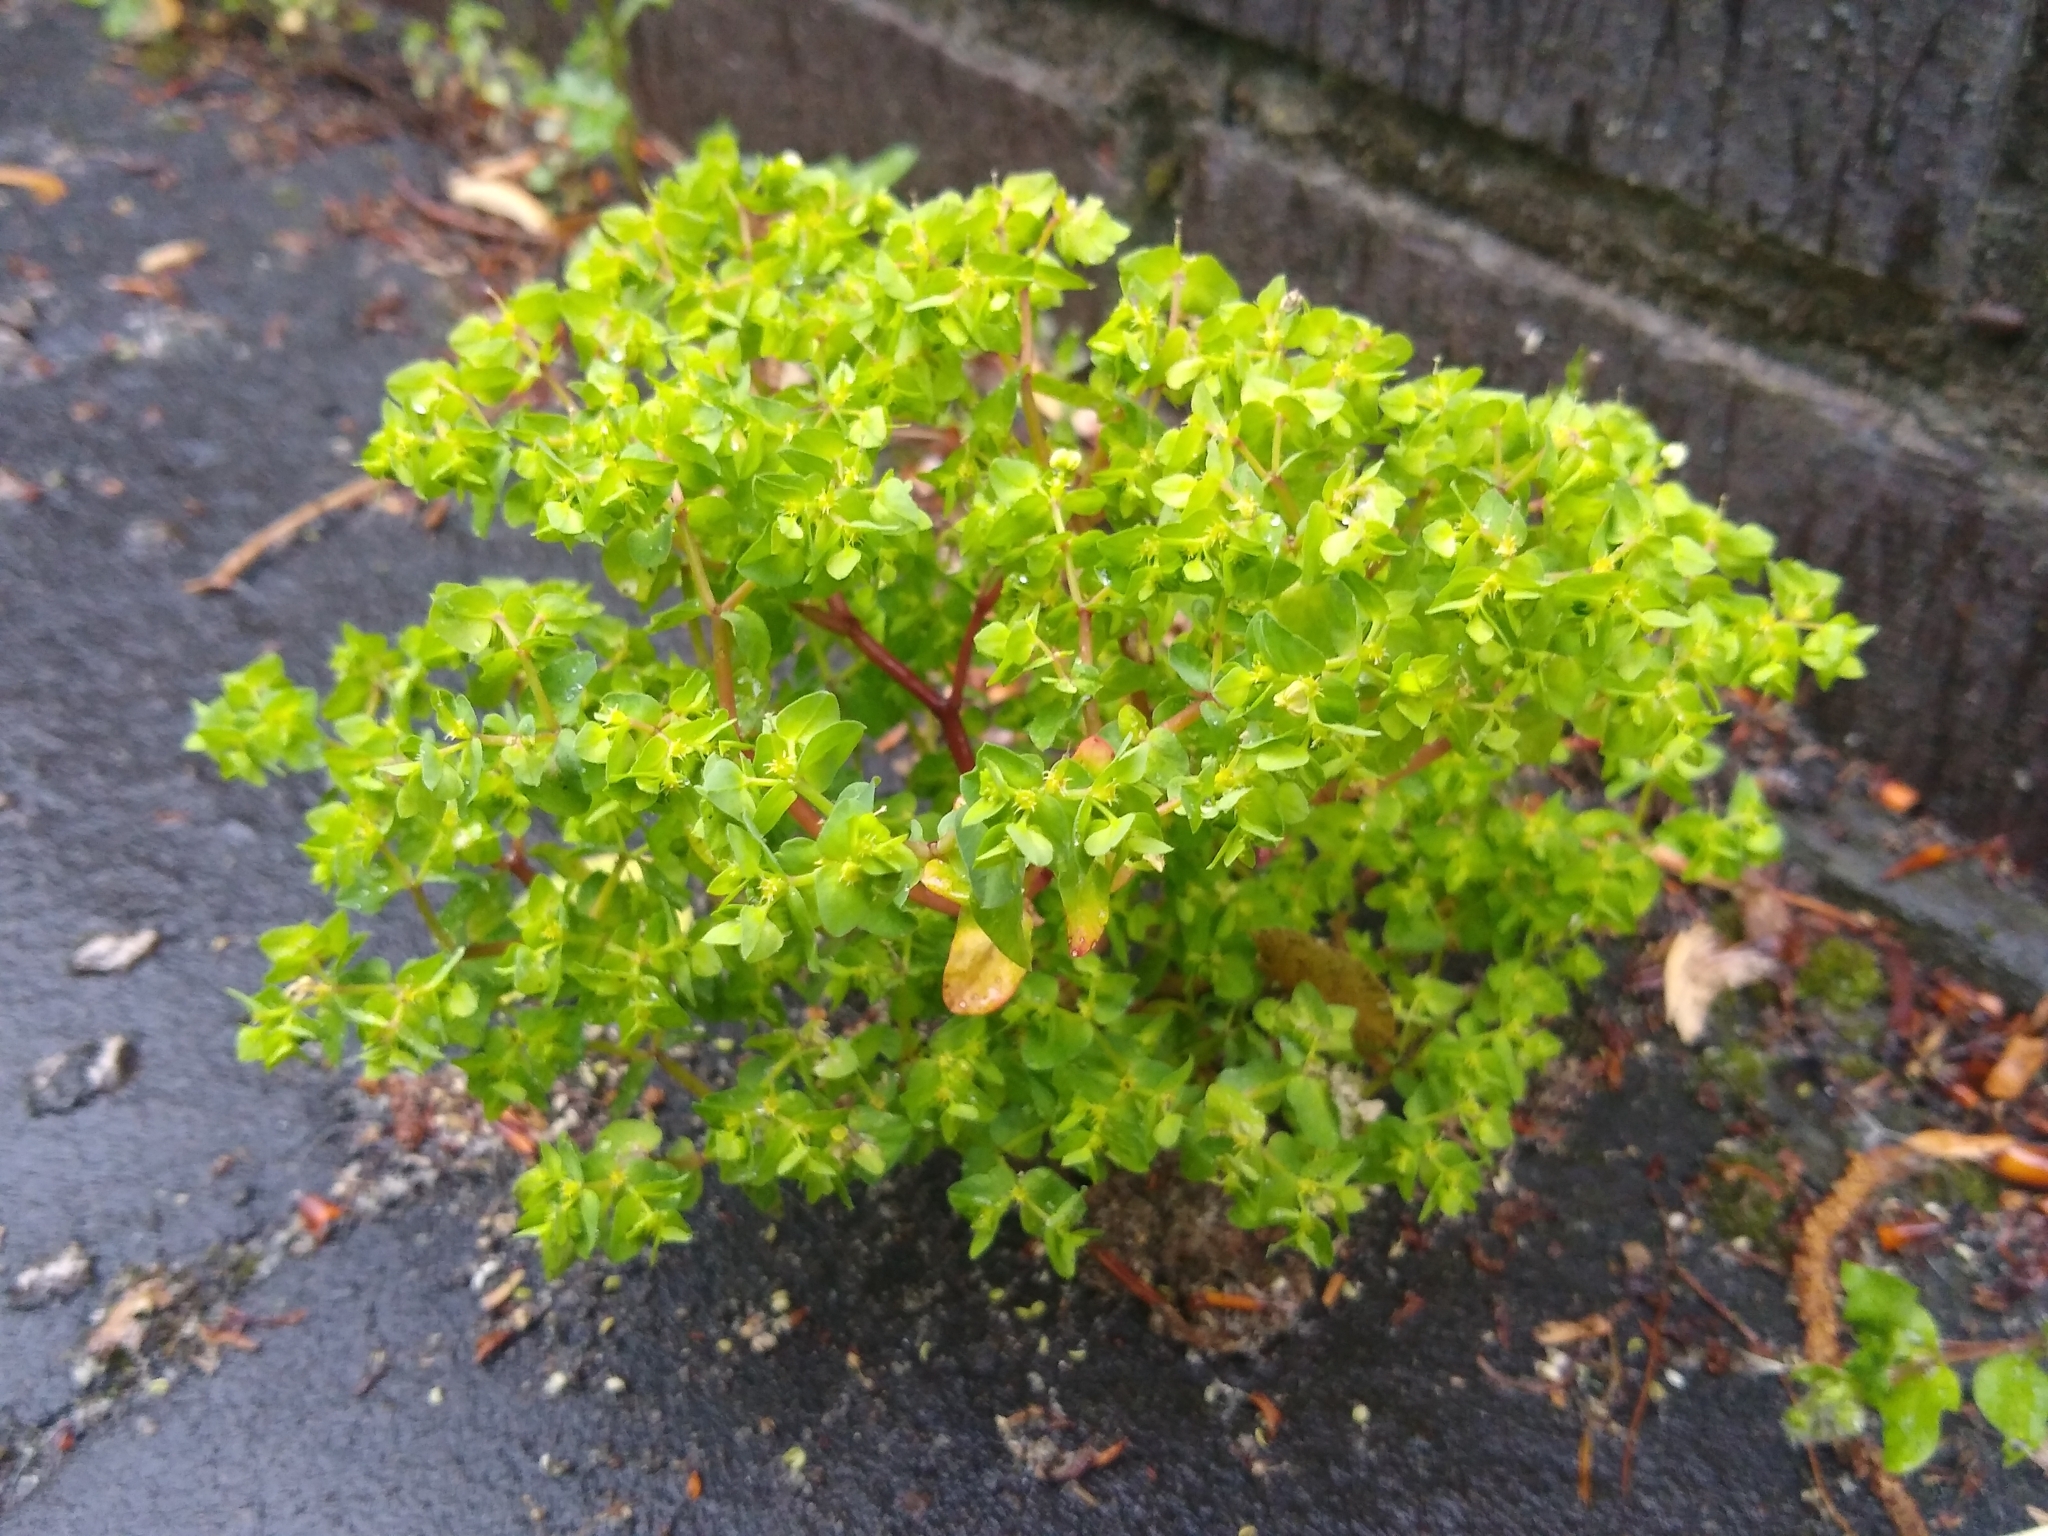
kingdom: Plantae
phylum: Tracheophyta
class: Magnoliopsida
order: Malpighiales
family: Euphorbiaceae
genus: Euphorbia
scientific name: Euphorbia peplus
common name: Petty spurge
